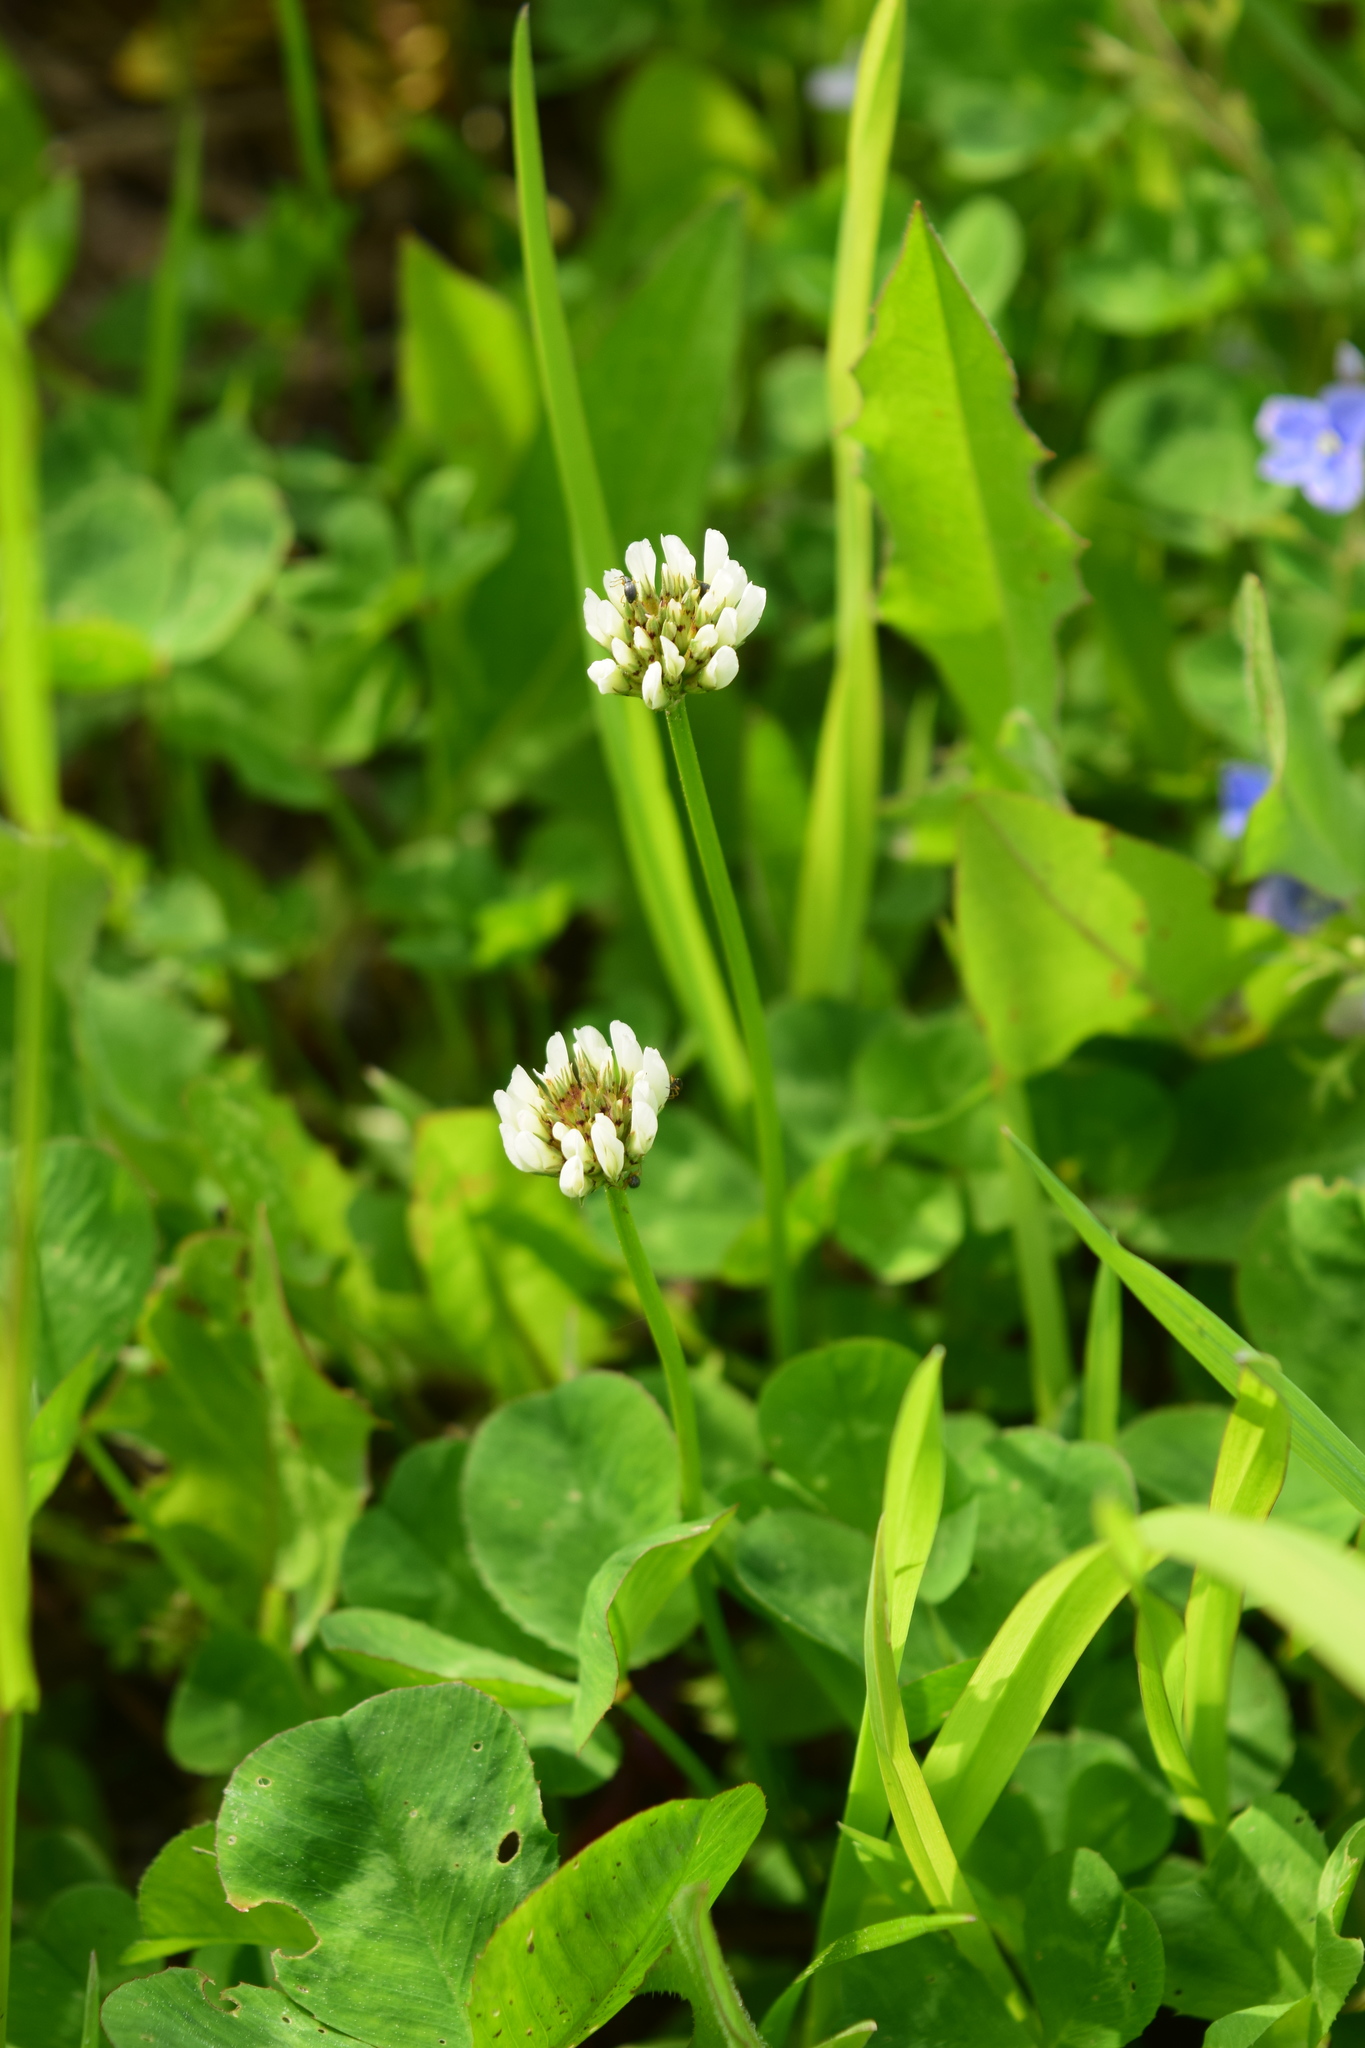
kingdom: Plantae
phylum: Tracheophyta
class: Magnoliopsida
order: Fabales
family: Fabaceae
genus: Trifolium
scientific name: Trifolium repens
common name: White clover
